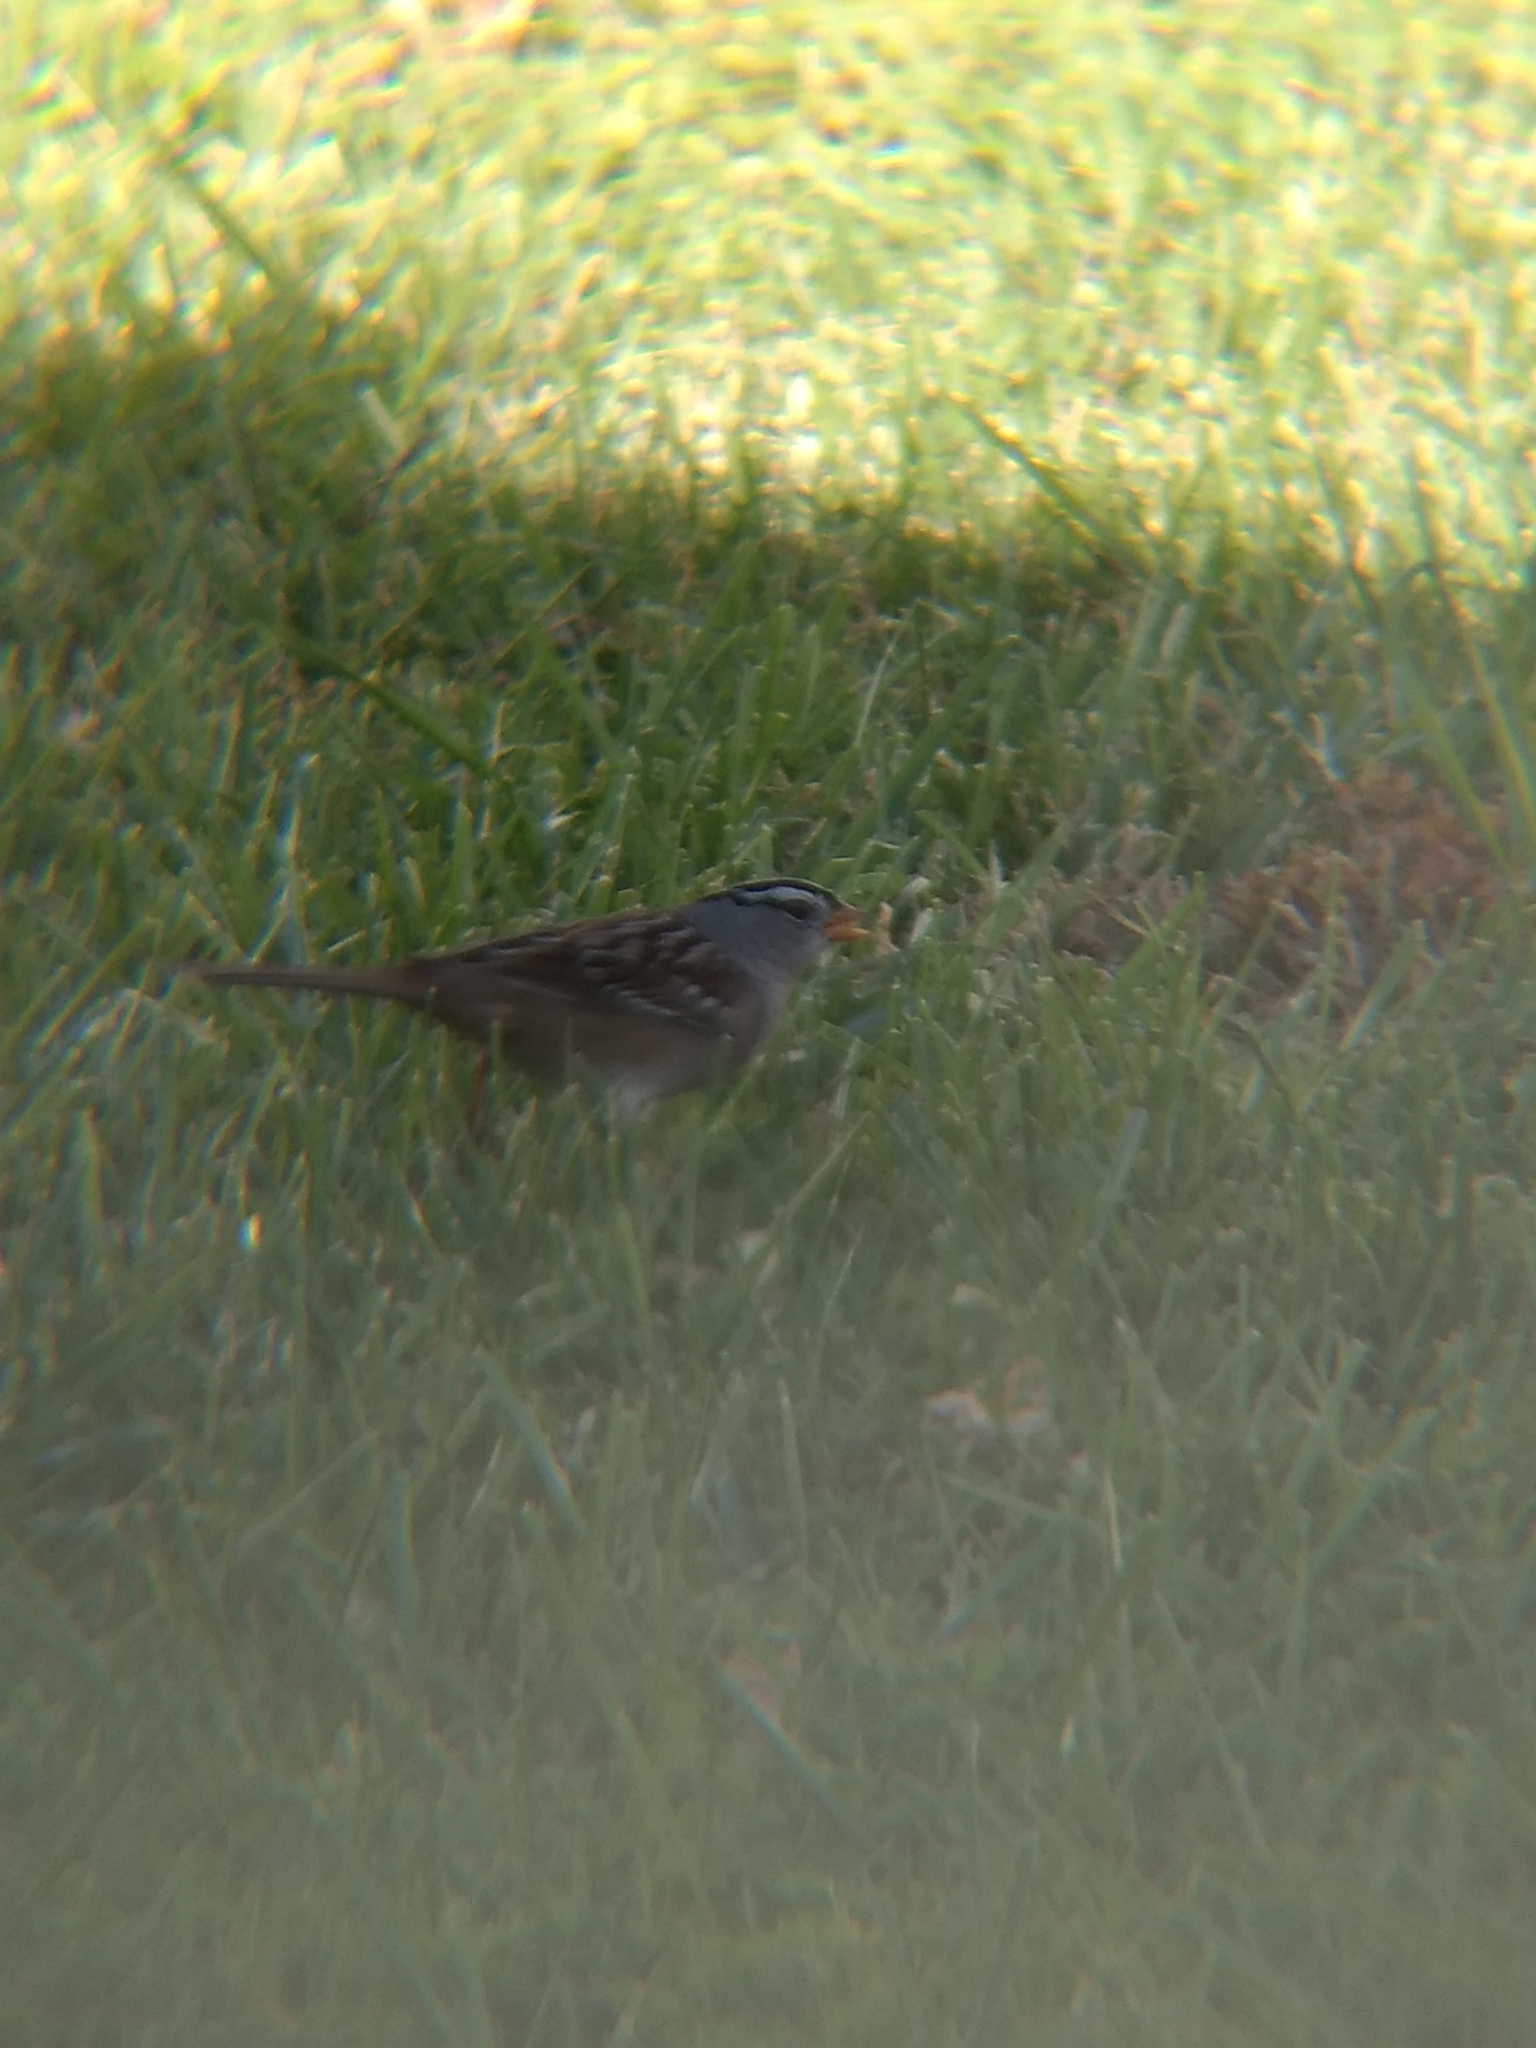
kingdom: Animalia
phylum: Chordata
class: Aves
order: Passeriformes
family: Passerellidae
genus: Zonotrichia
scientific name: Zonotrichia leucophrys
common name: White-crowned sparrow
